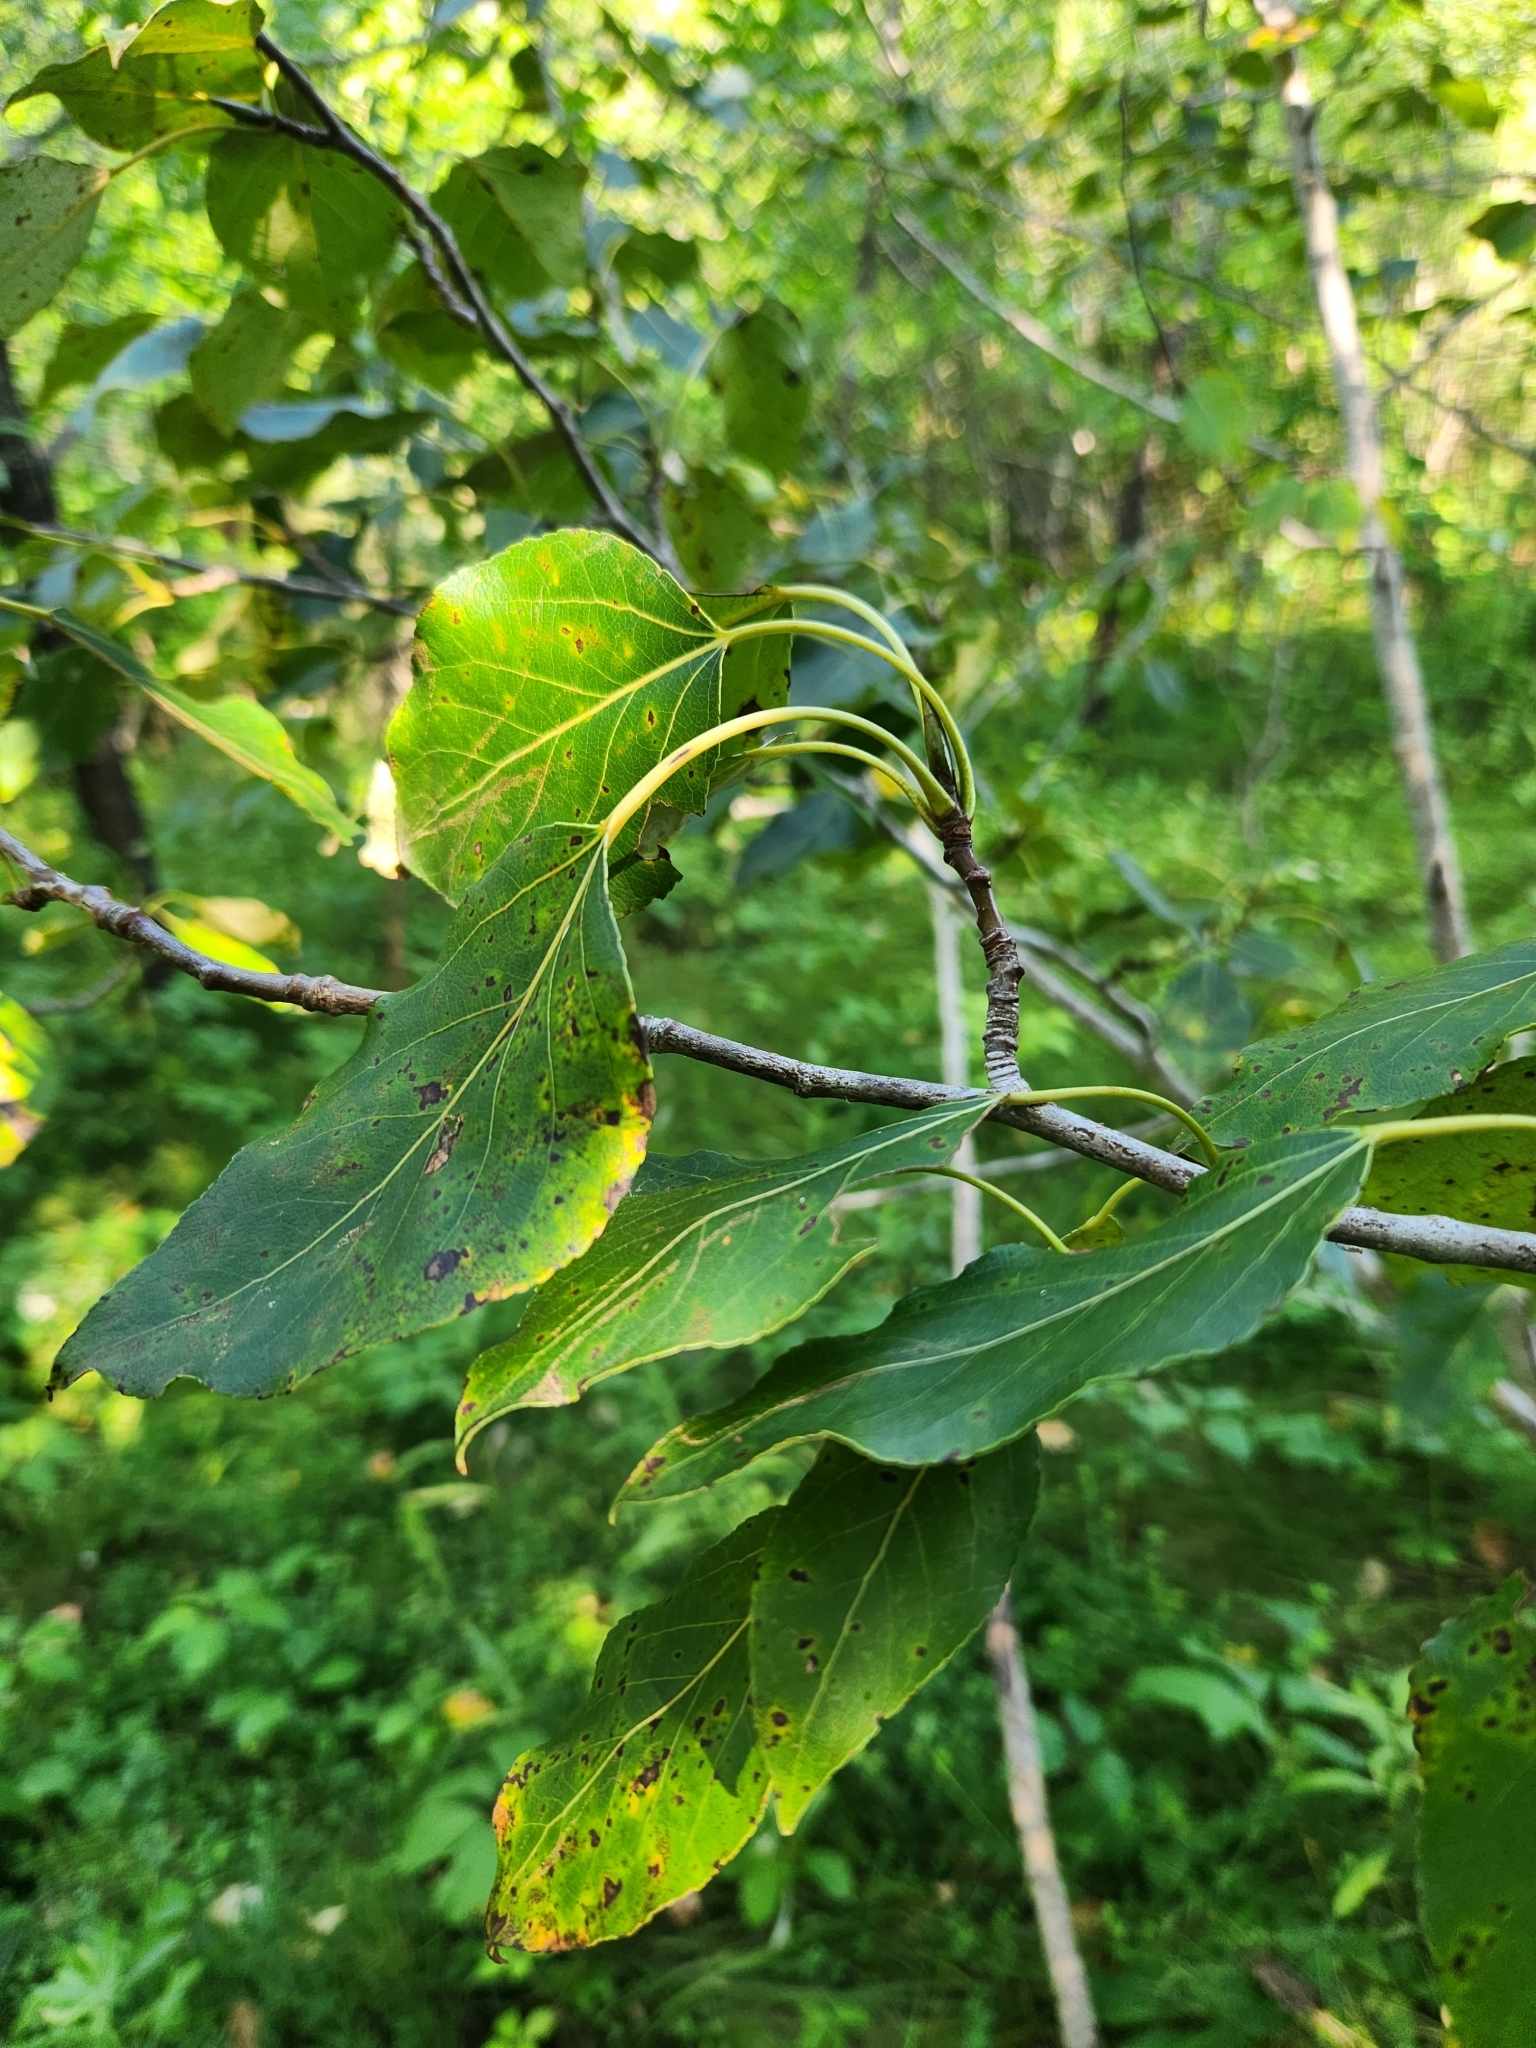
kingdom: Plantae
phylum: Tracheophyta
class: Magnoliopsida
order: Malpighiales
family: Salicaceae
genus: Populus
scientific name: Populus balsamifera
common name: Balsam poplar
